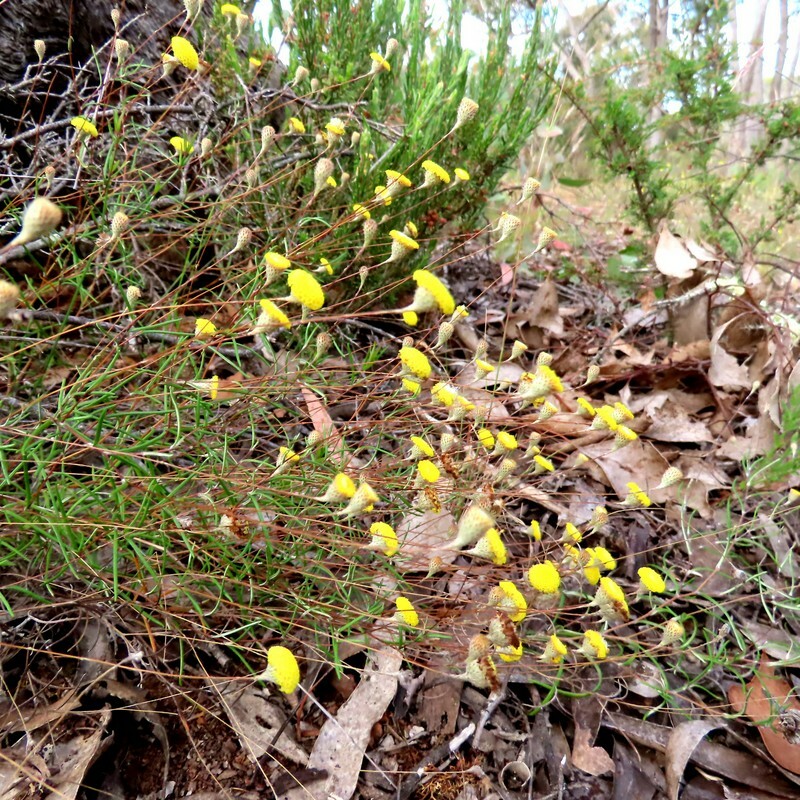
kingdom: Plantae
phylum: Tracheophyta
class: Magnoliopsida
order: Asterales
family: Asteraceae
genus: Leptorhynchos
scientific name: Leptorhynchos tenuifolius
